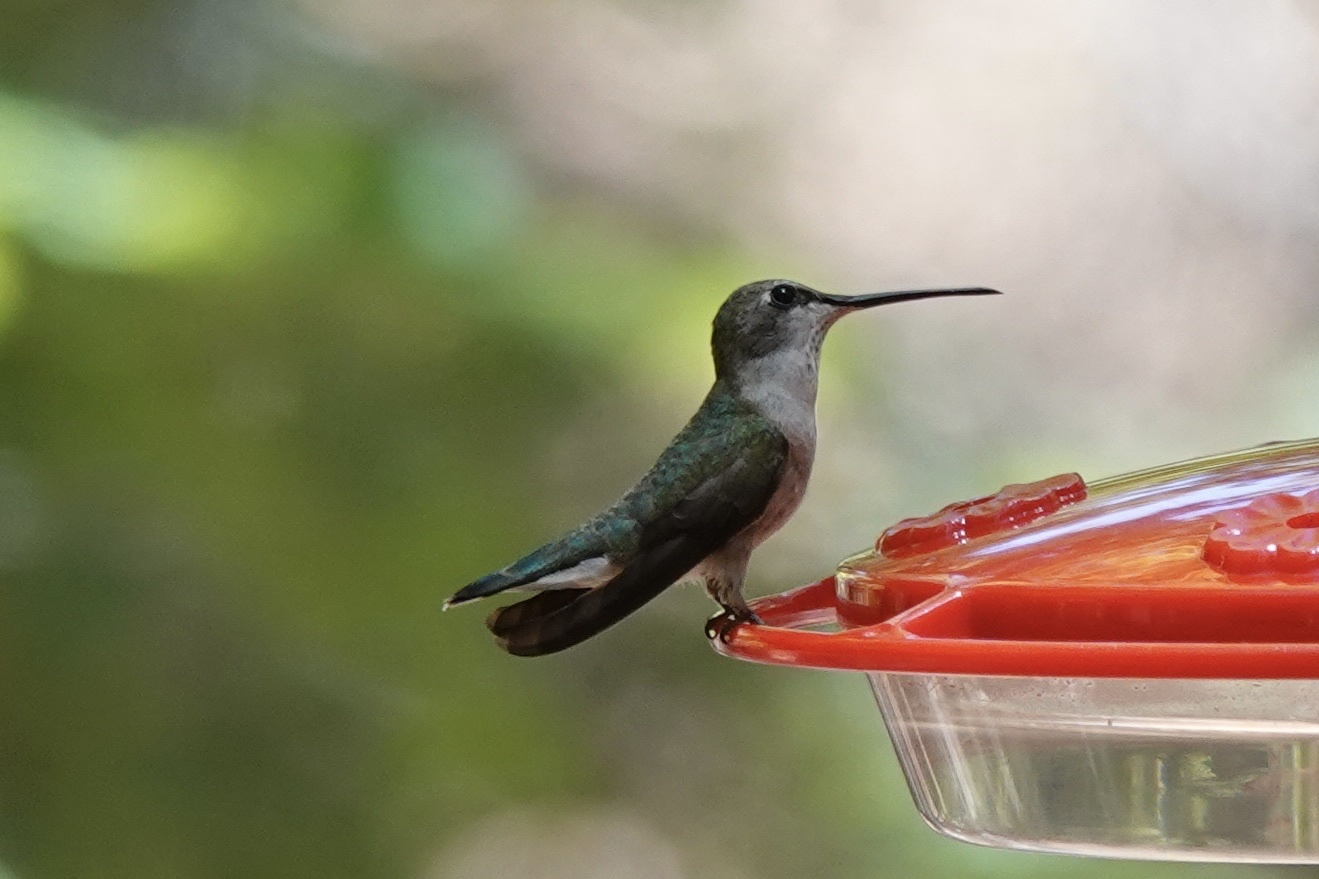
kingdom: Animalia
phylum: Chordata
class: Aves
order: Apodiformes
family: Trochilidae
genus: Archilochus
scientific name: Archilochus alexandri
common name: Black-chinned hummingbird
